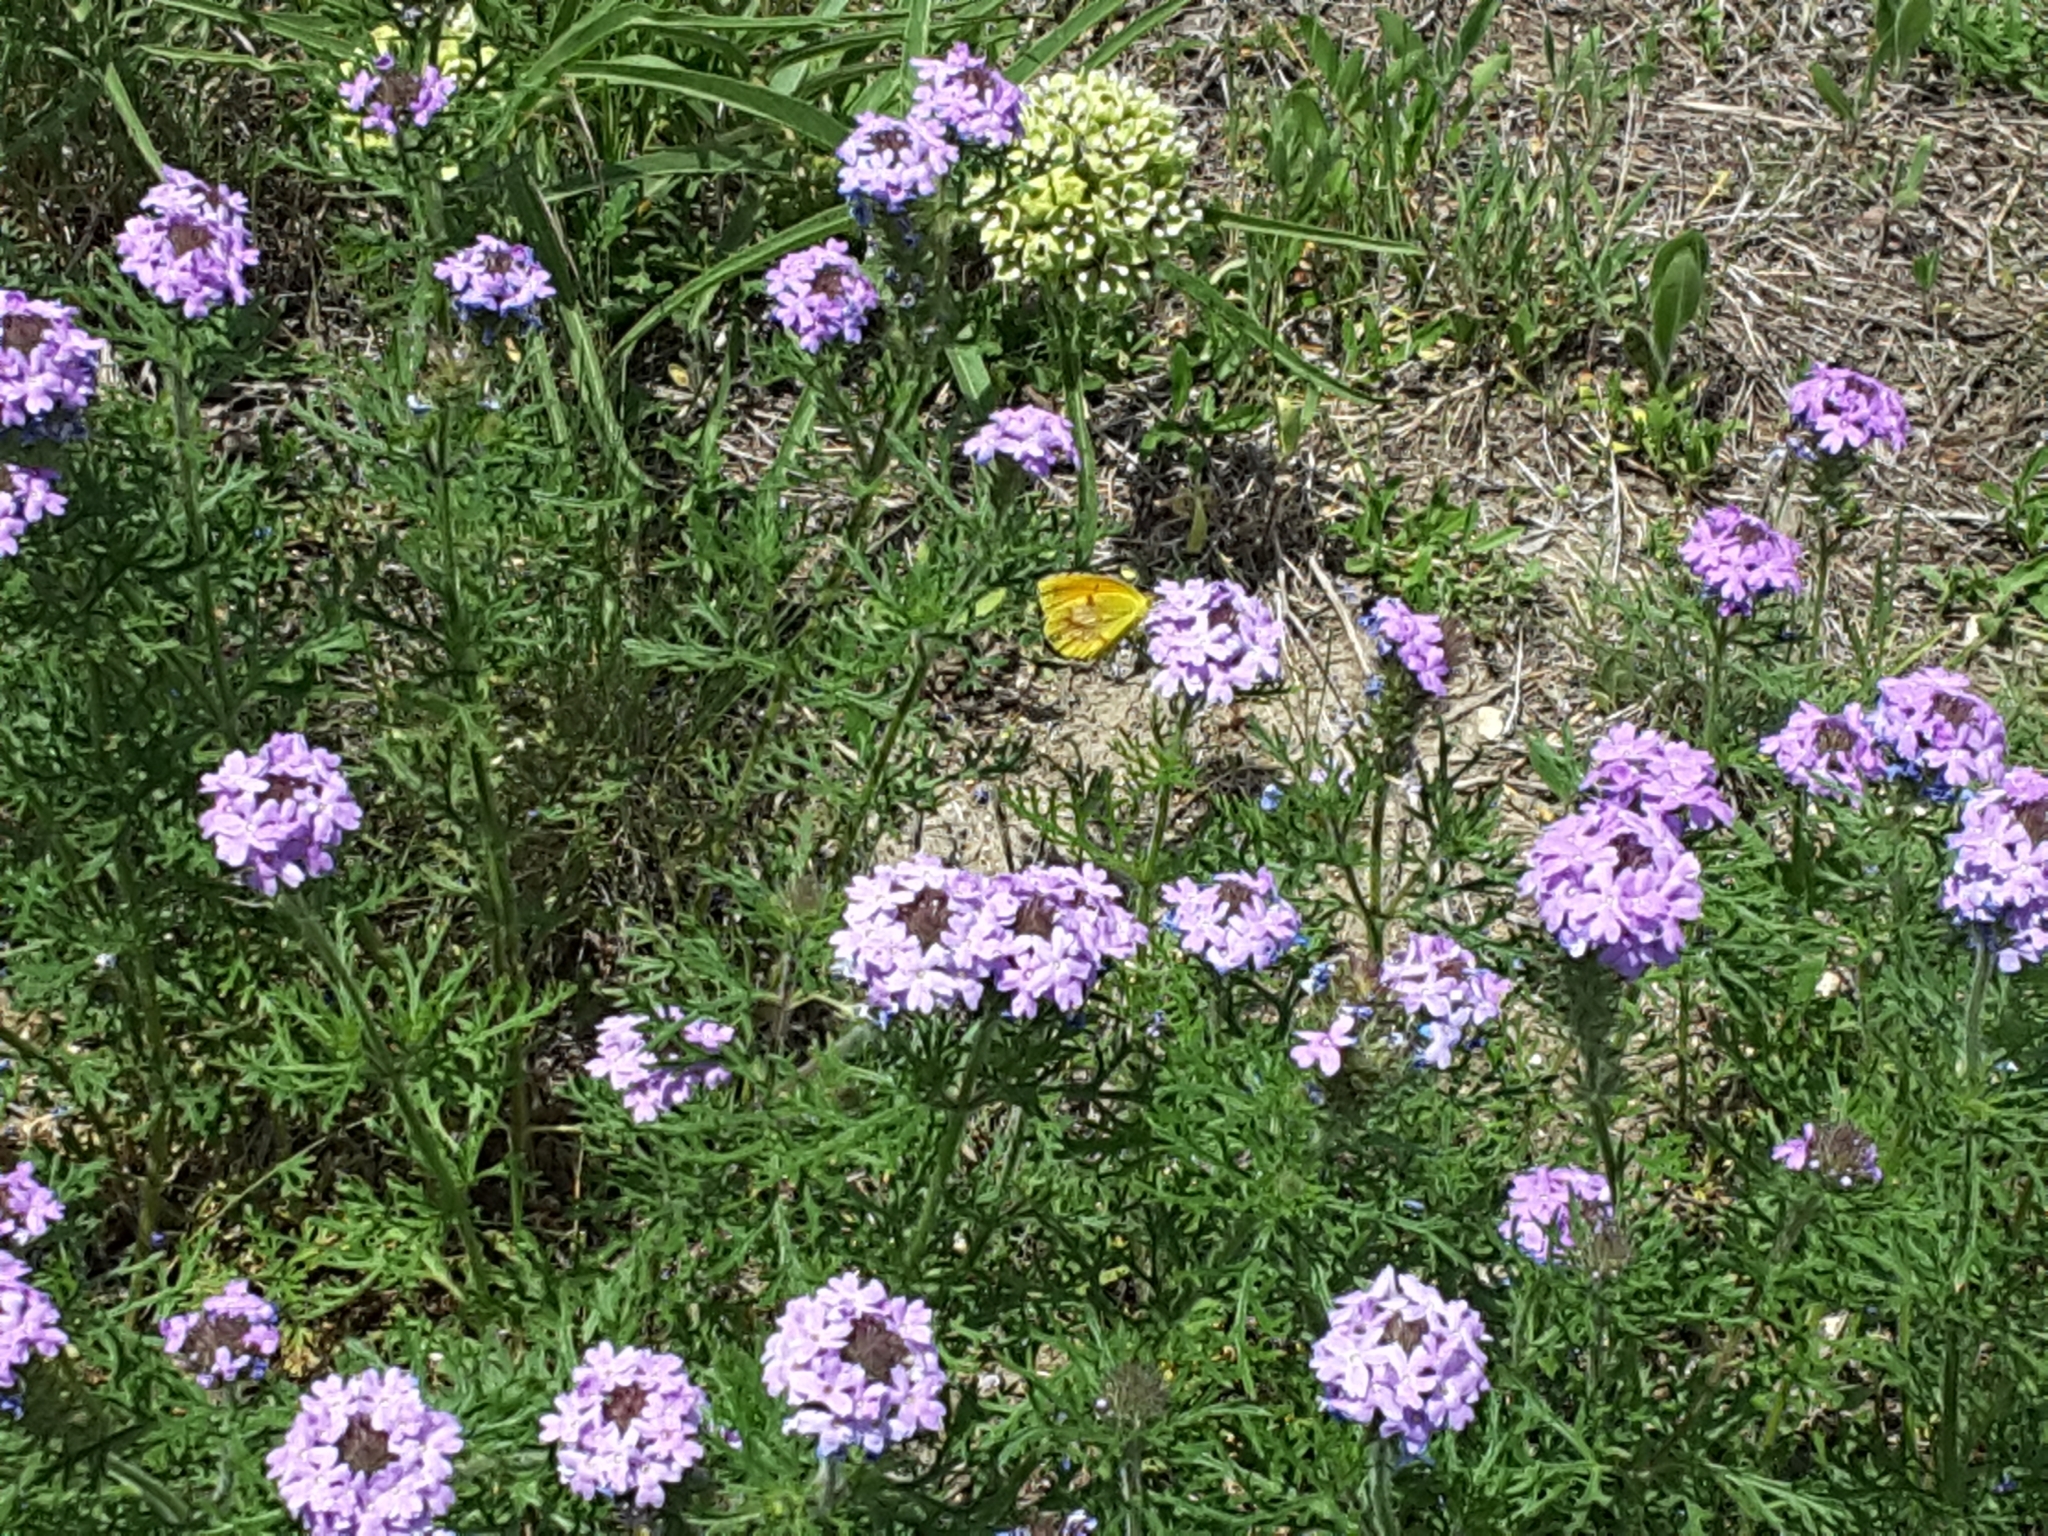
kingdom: Animalia
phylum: Arthropoda
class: Insecta
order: Lepidoptera
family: Pieridae
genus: Abaeis
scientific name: Abaeis nicippe
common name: Sleepy orange
